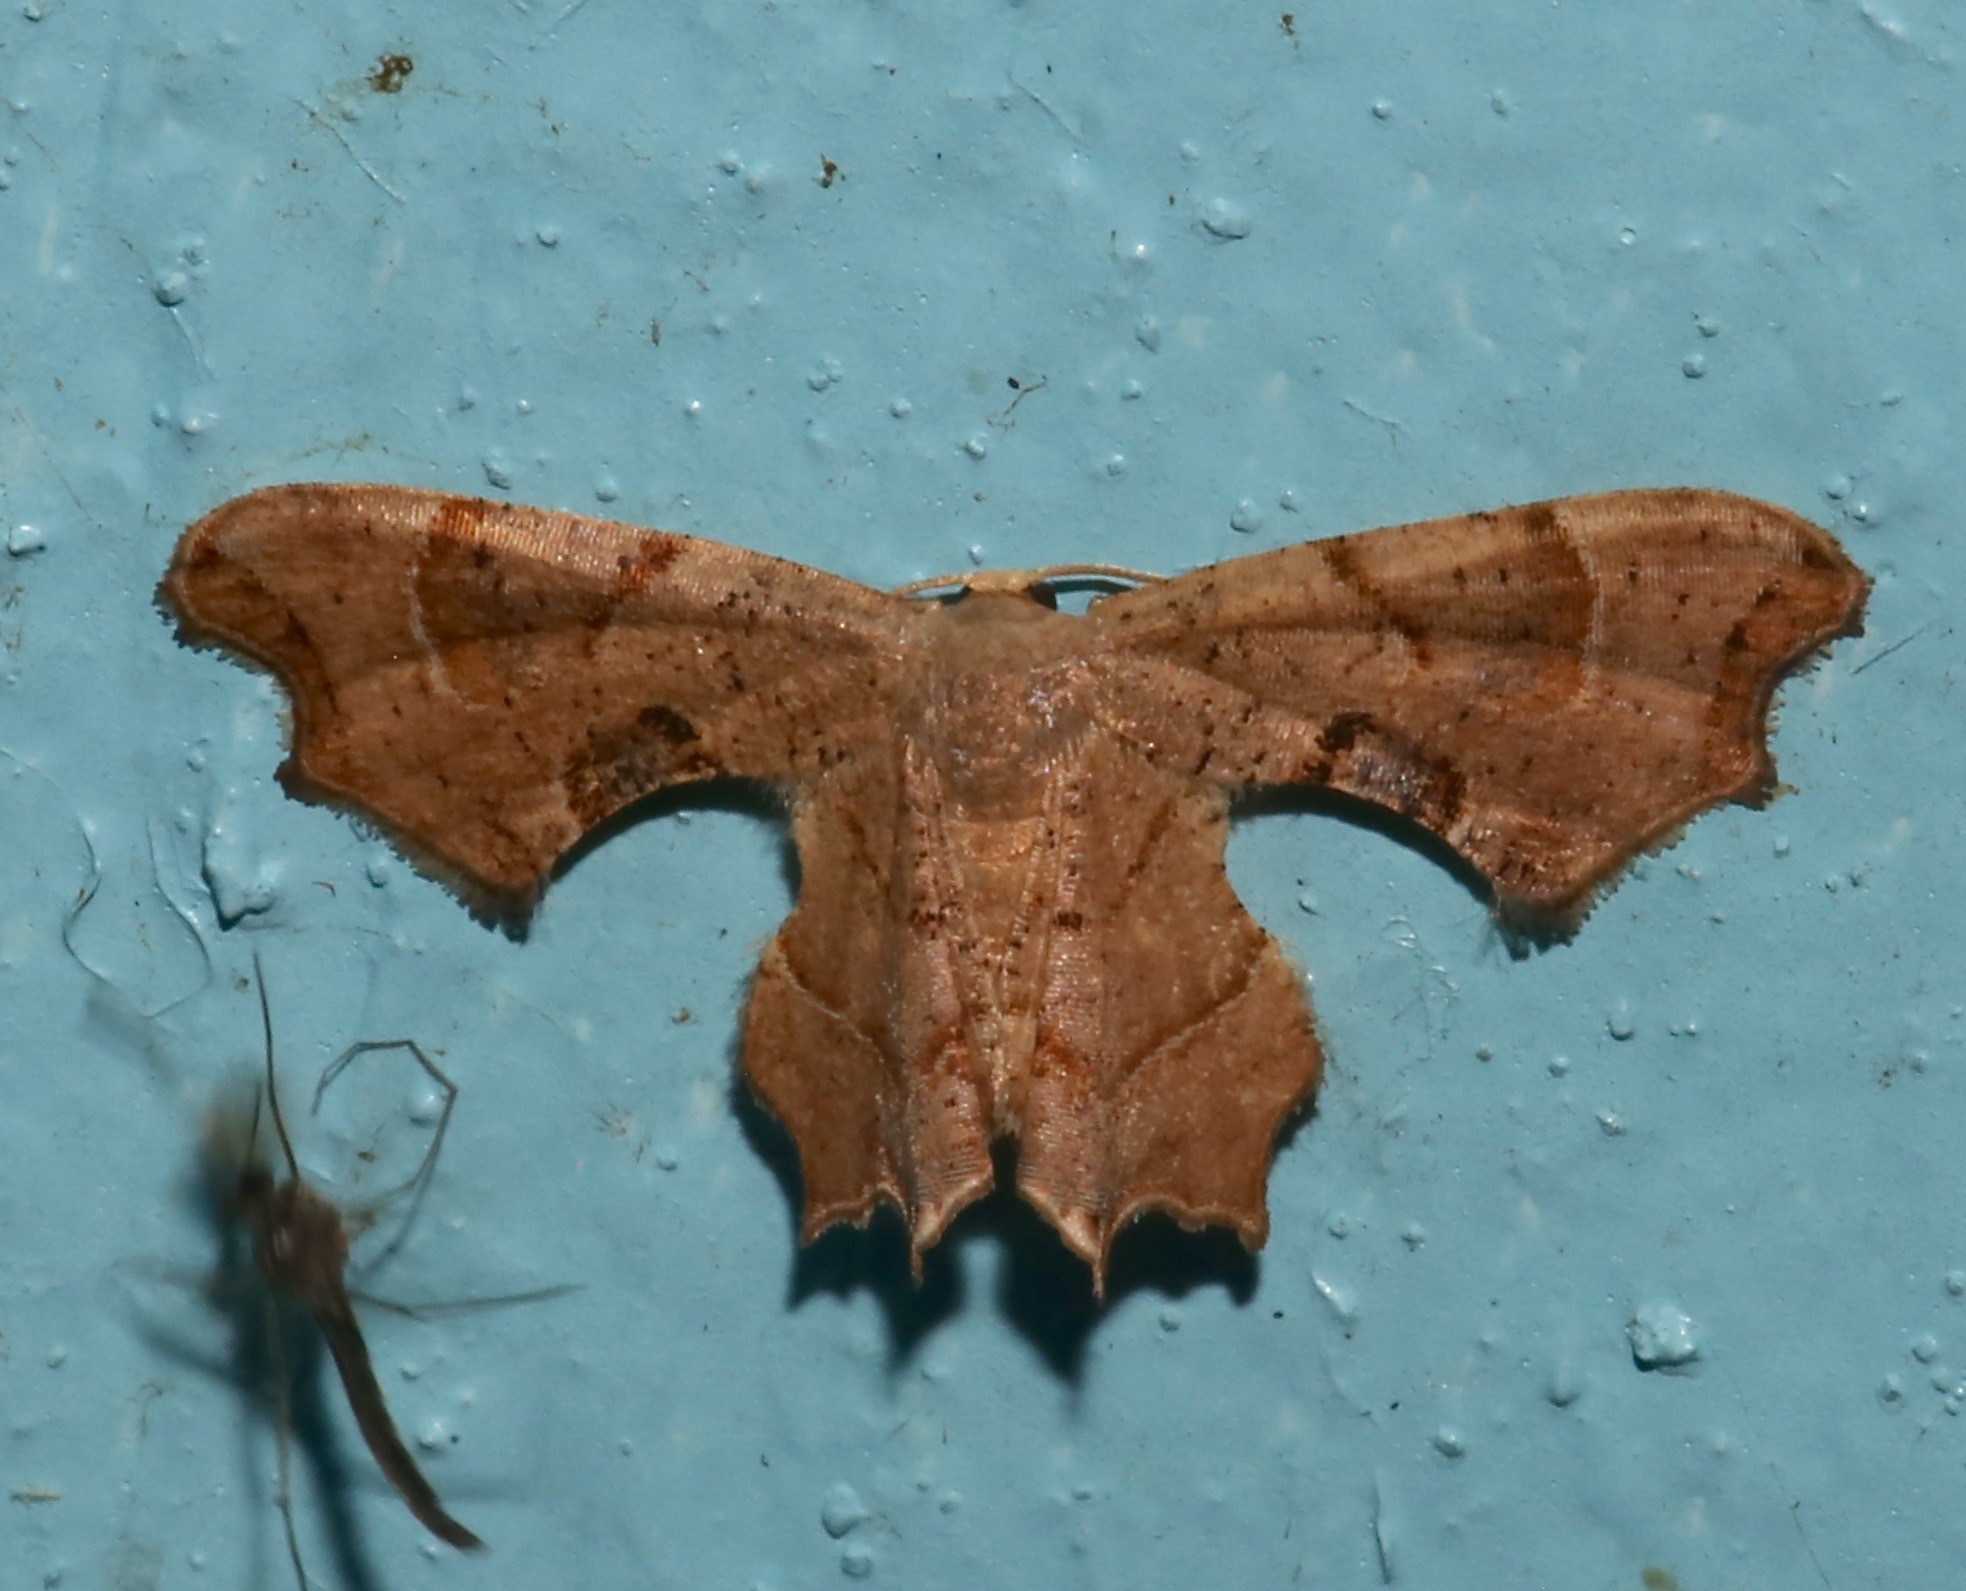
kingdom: Animalia
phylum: Arthropoda
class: Insecta
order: Lepidoptera
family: Uraniidae
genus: Epiplema
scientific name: Epiplema Calledapteryx dryopterata
